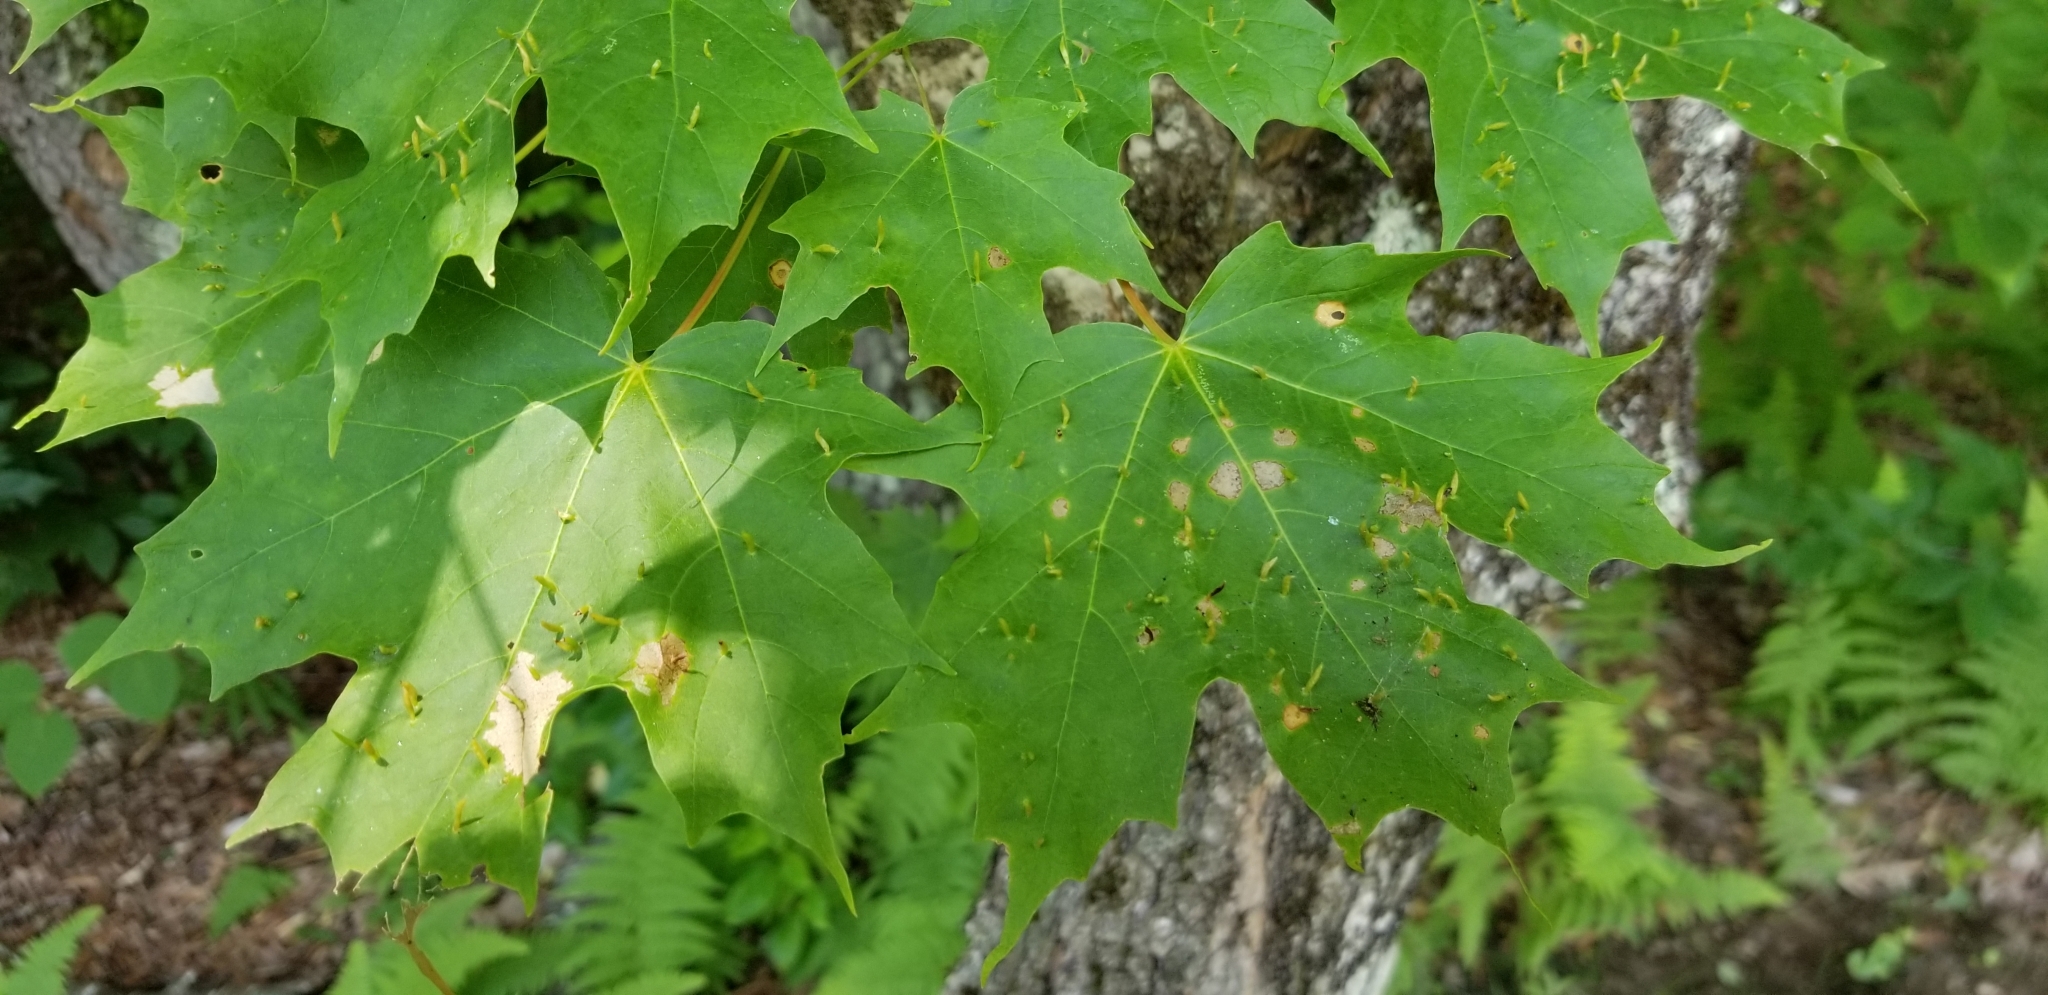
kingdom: Animalia
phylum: Arthropoda
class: Arachnida
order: Trombidiformes
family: Eriophyidae
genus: Vasates
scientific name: Vasates aceriscrumena
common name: Maple spindle gall mite
